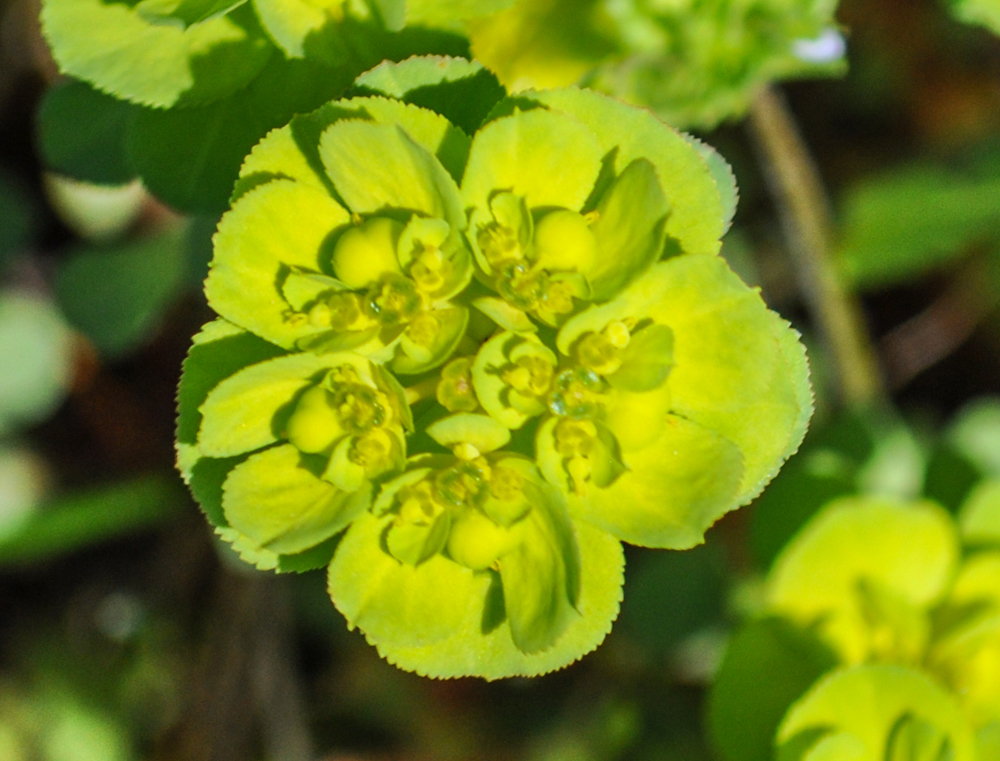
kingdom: Plantae
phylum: Tracheophyta
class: Magnoliopsida
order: Malpighiales
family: Euphorbiaceae
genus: Euphorbia
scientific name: Euphorbia helioscopia
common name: Sun spurge
